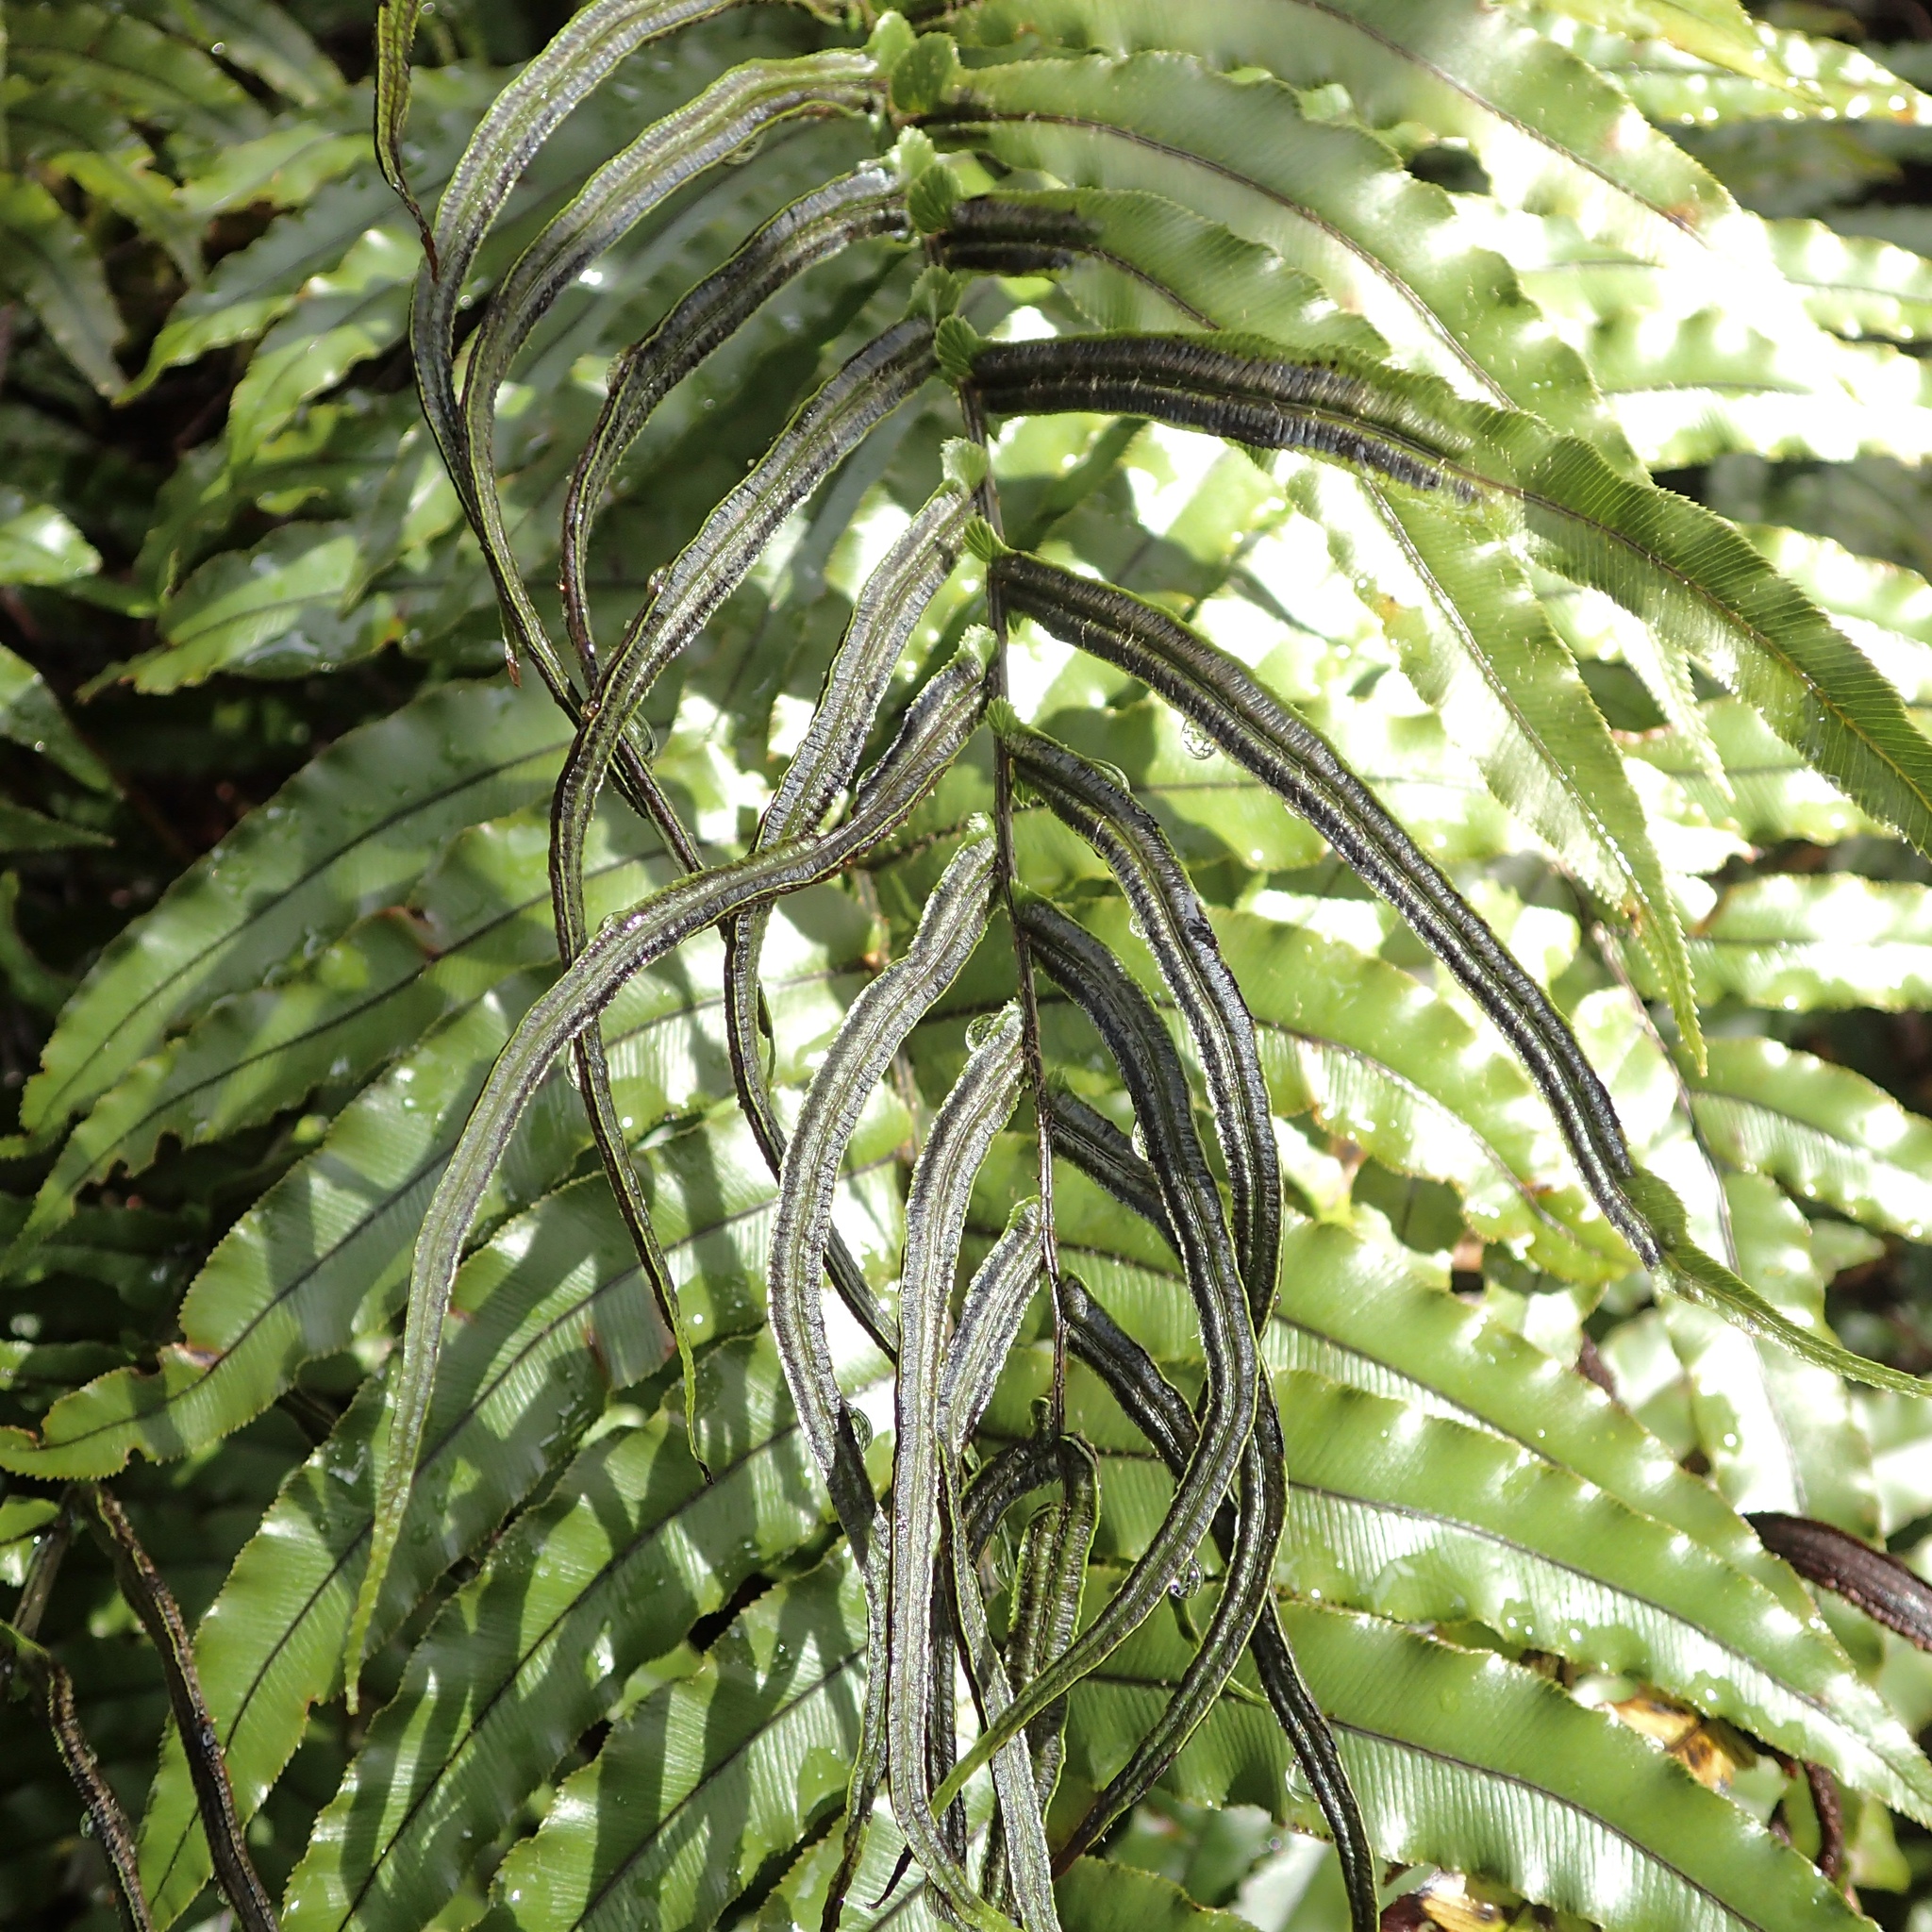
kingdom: Plantae
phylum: Tracheophyta
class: Polypodiopsida
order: Polypodiales
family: Blechnaceae
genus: Parablechnum
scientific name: Parablechnum montanum
